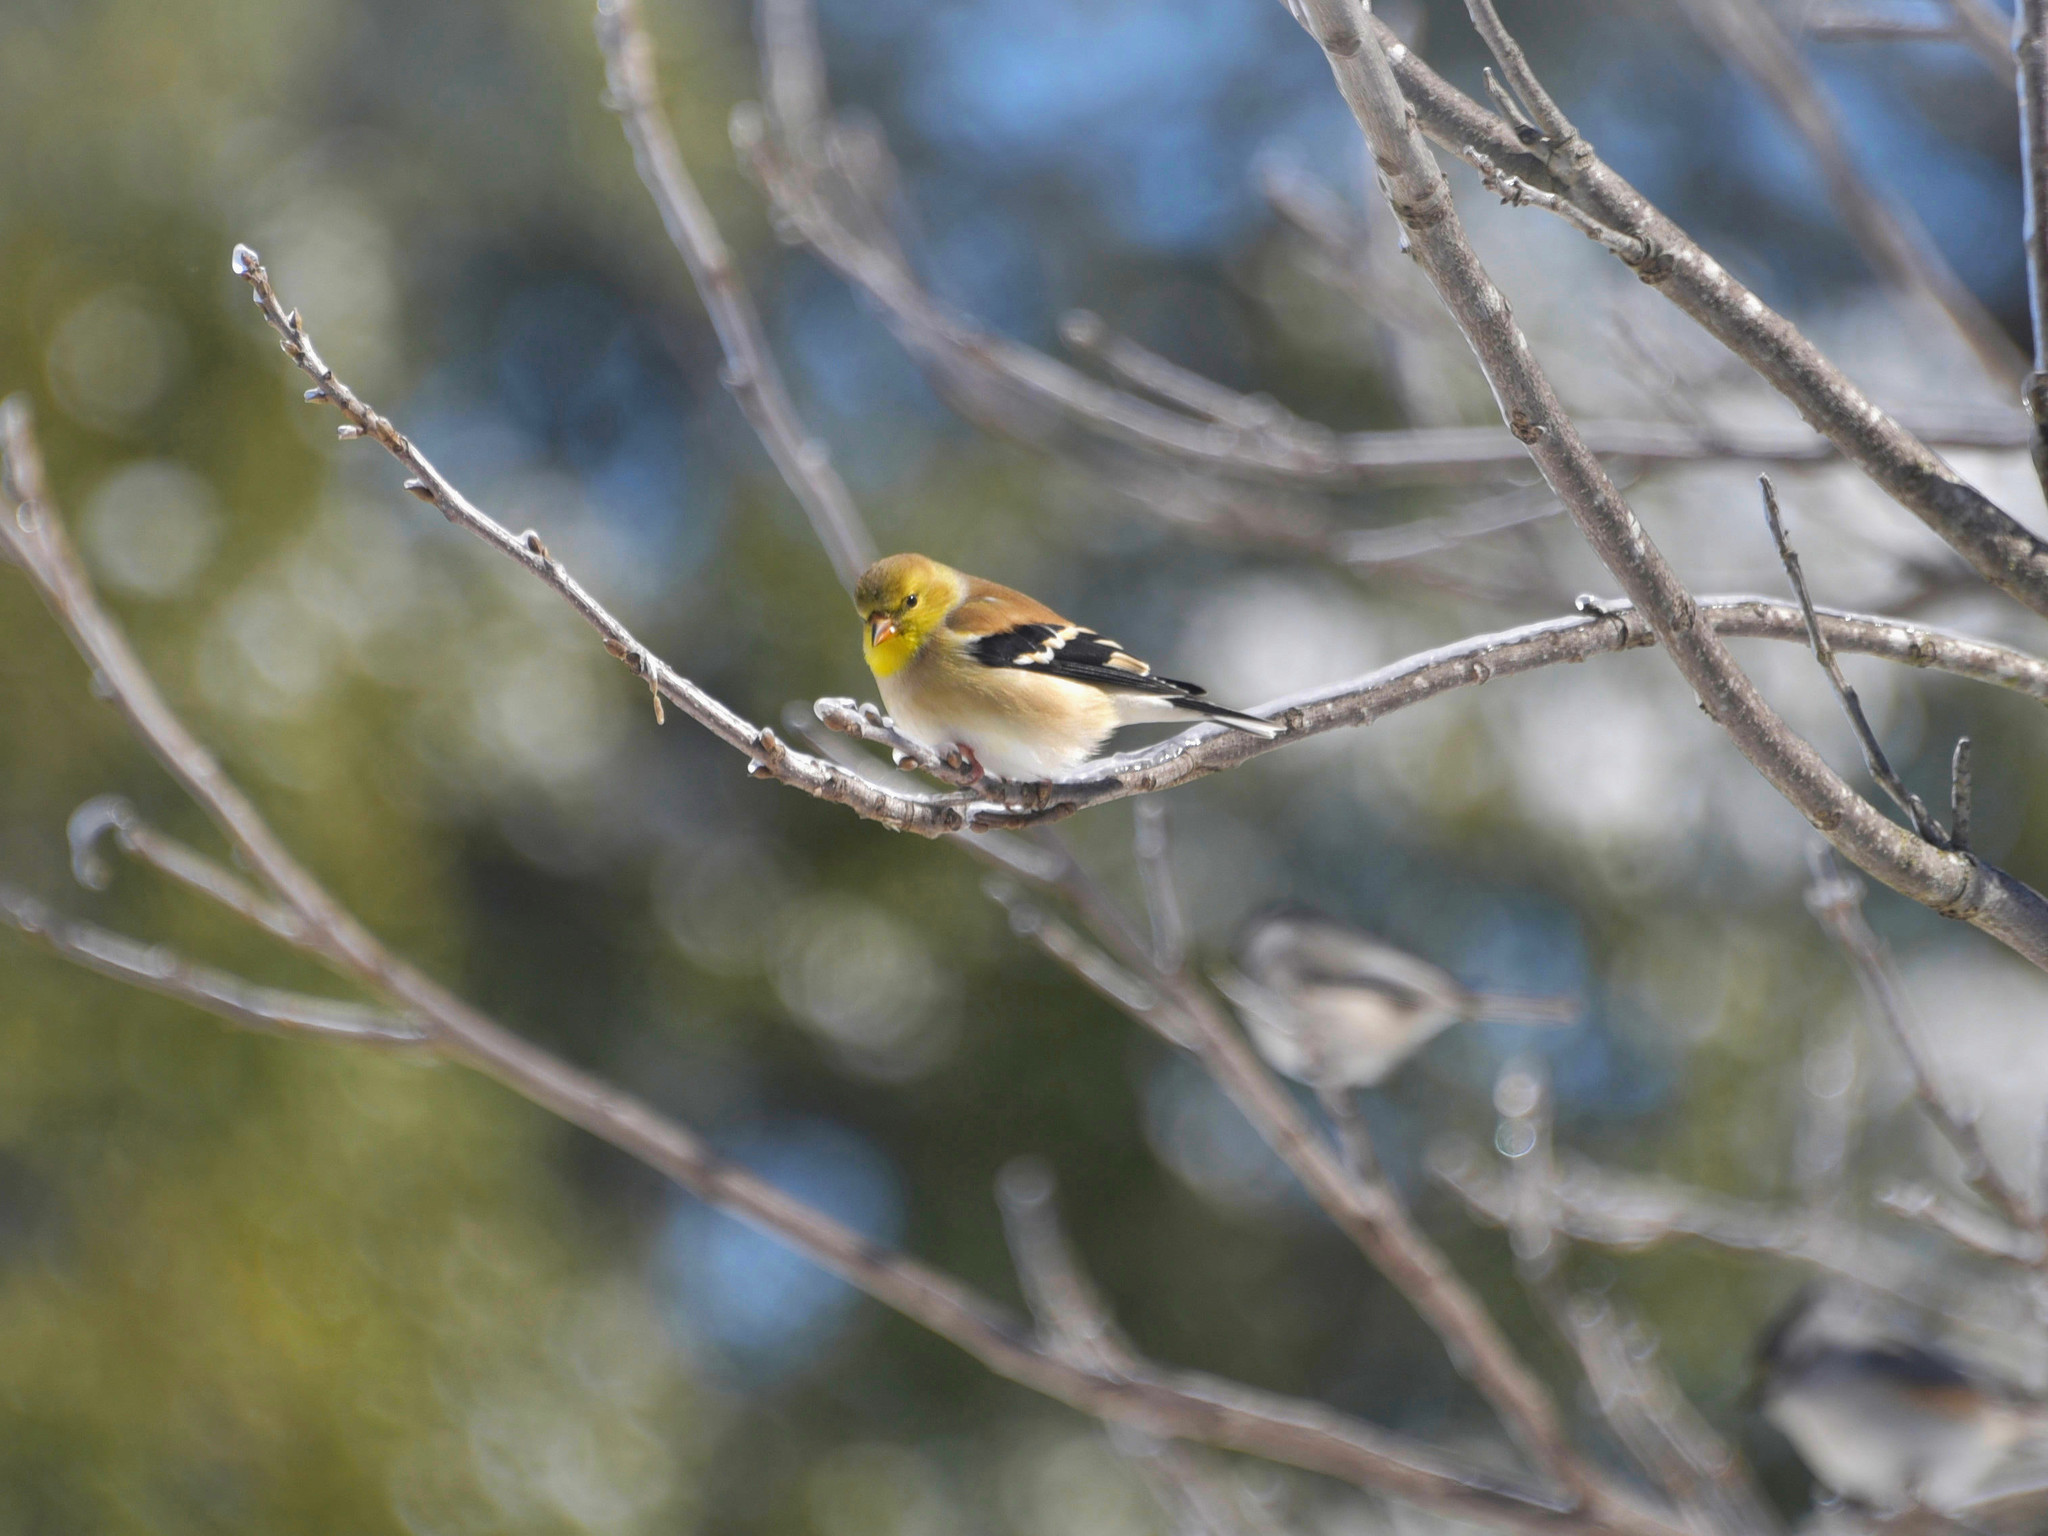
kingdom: Animalia
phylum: Chordata
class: Aves
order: Passeriformes
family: Fringillidae
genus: Spinus
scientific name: Spinus tristis
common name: American goldfinch
